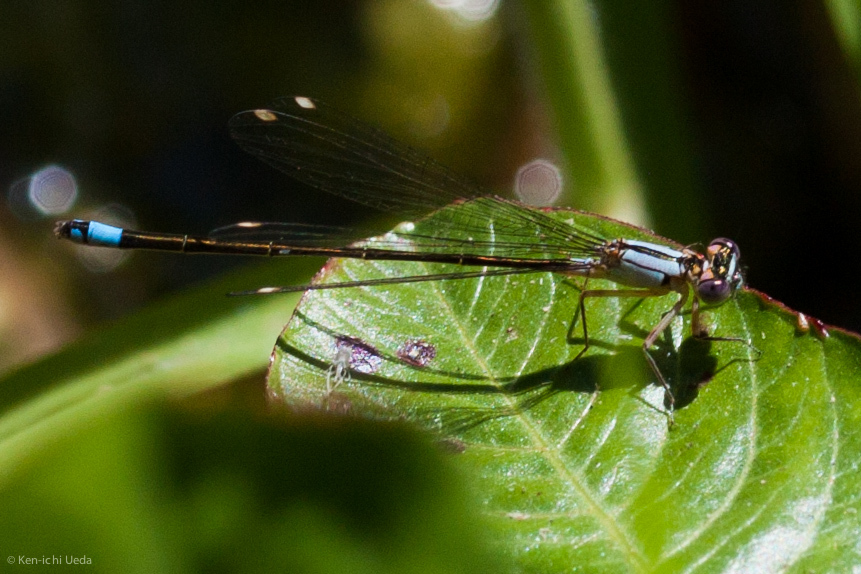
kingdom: Animalia
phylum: Arthropoda
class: Insecta
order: Odonata
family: Coenagrionidae
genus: Ischnura
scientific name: Ischnura cervula
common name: Pacific forktail
